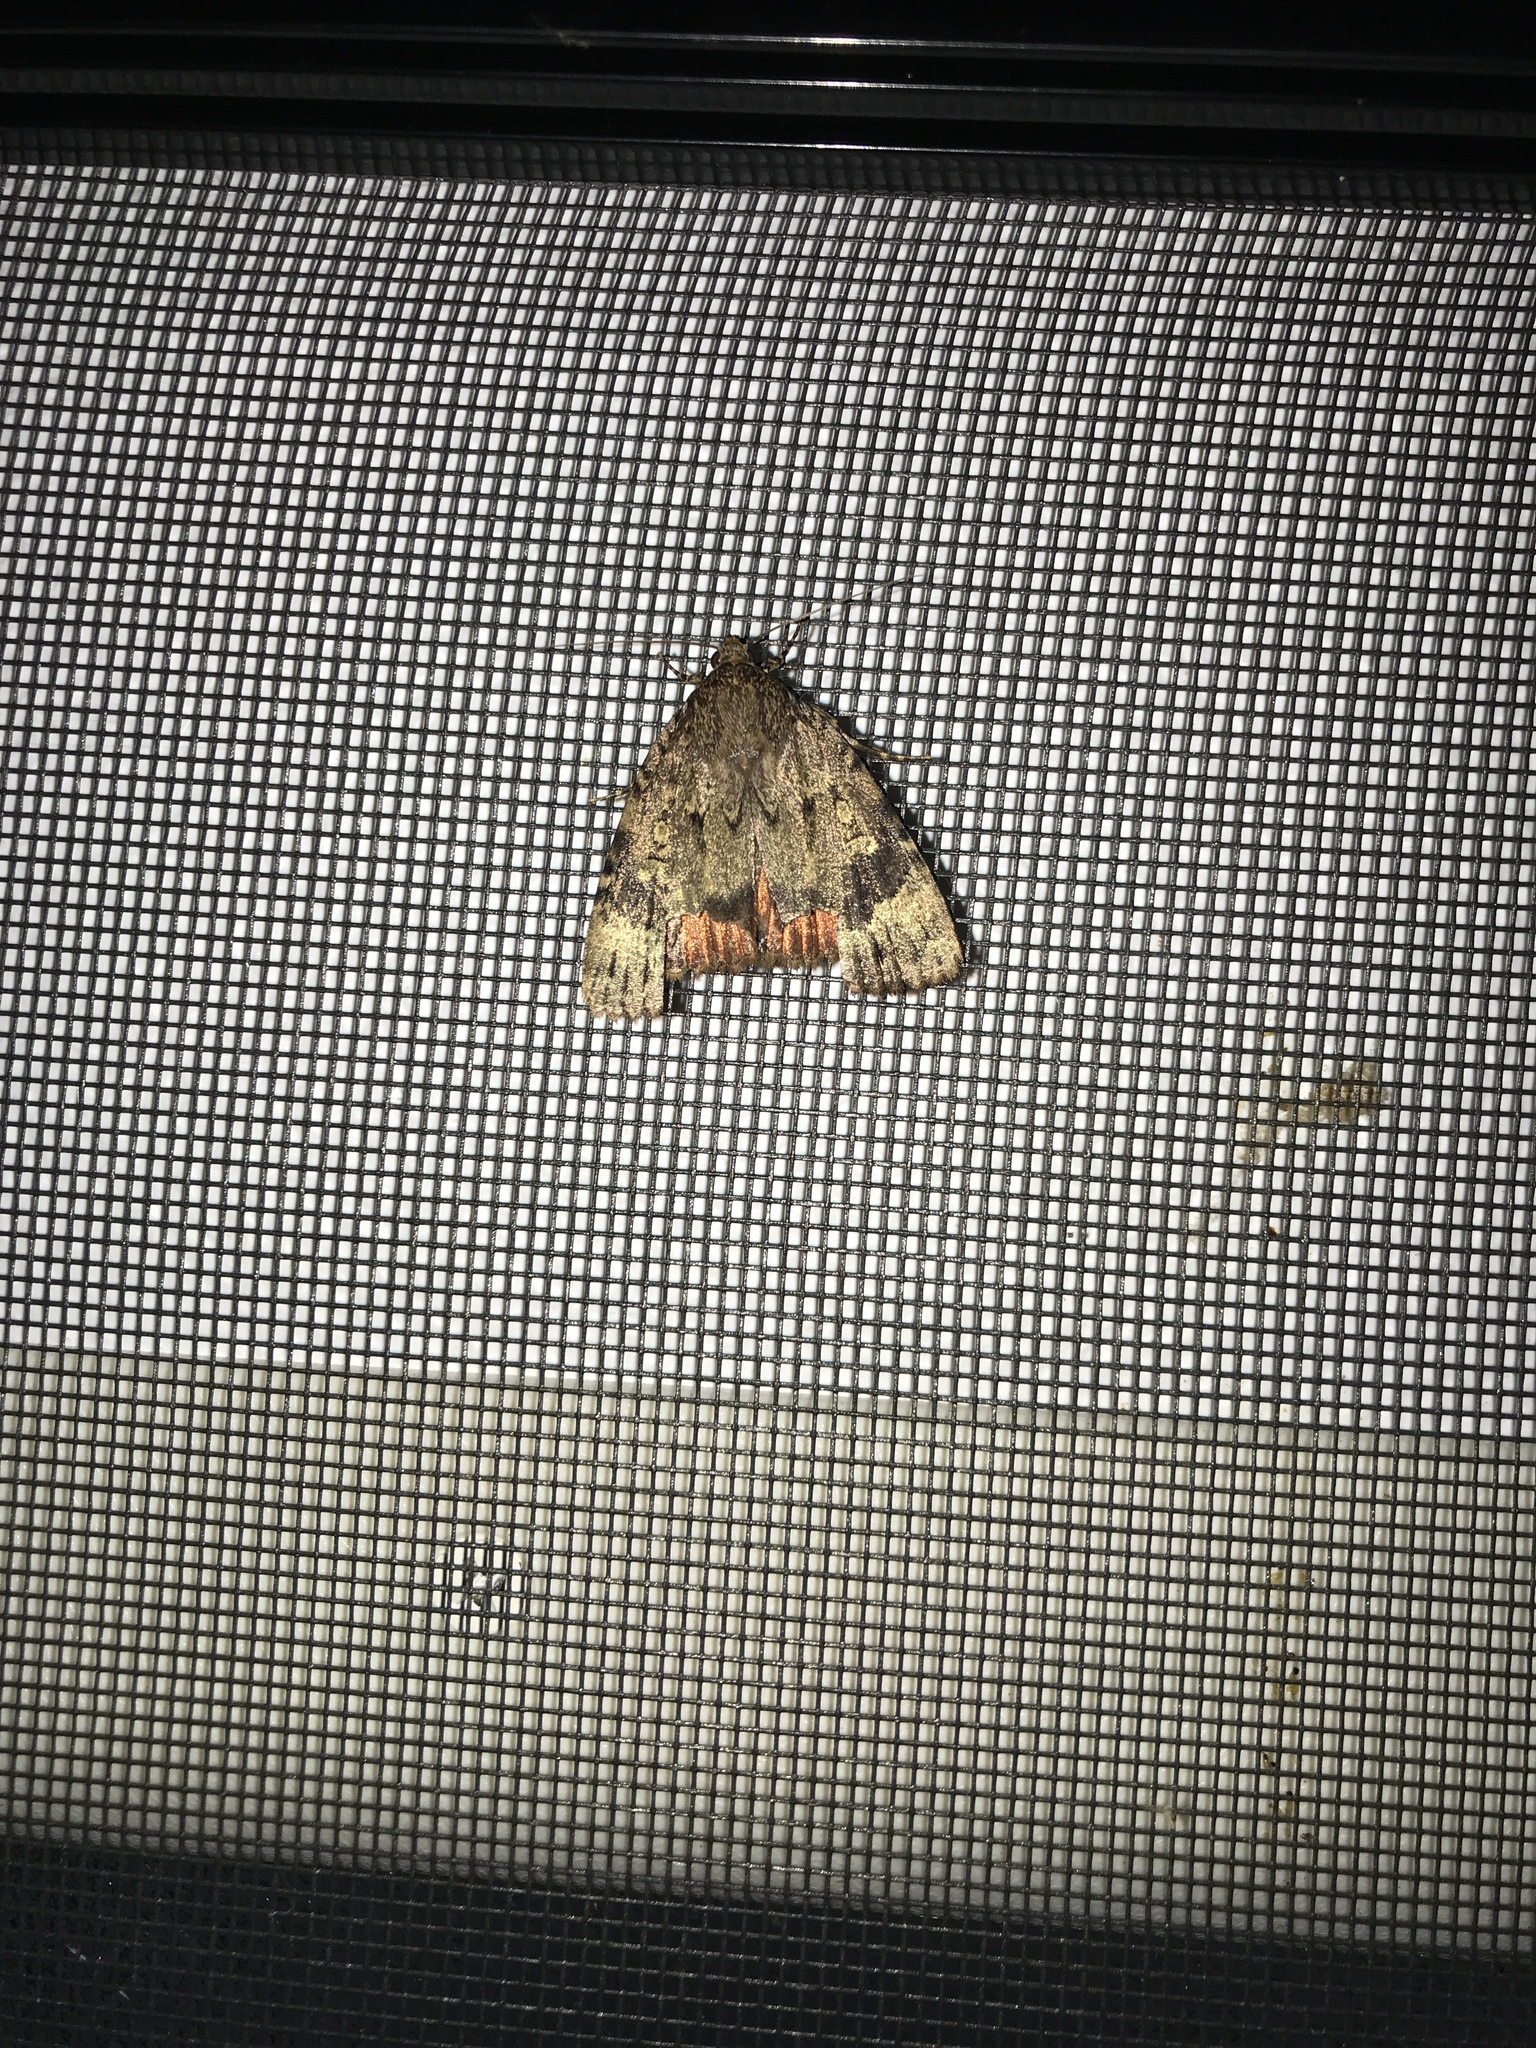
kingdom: Animalia
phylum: Arthropoda
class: Insecta
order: Lepidoptera
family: Noctuidae
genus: Amphipyra
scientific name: Amphipyra pyramidoides
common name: American copper underwing
